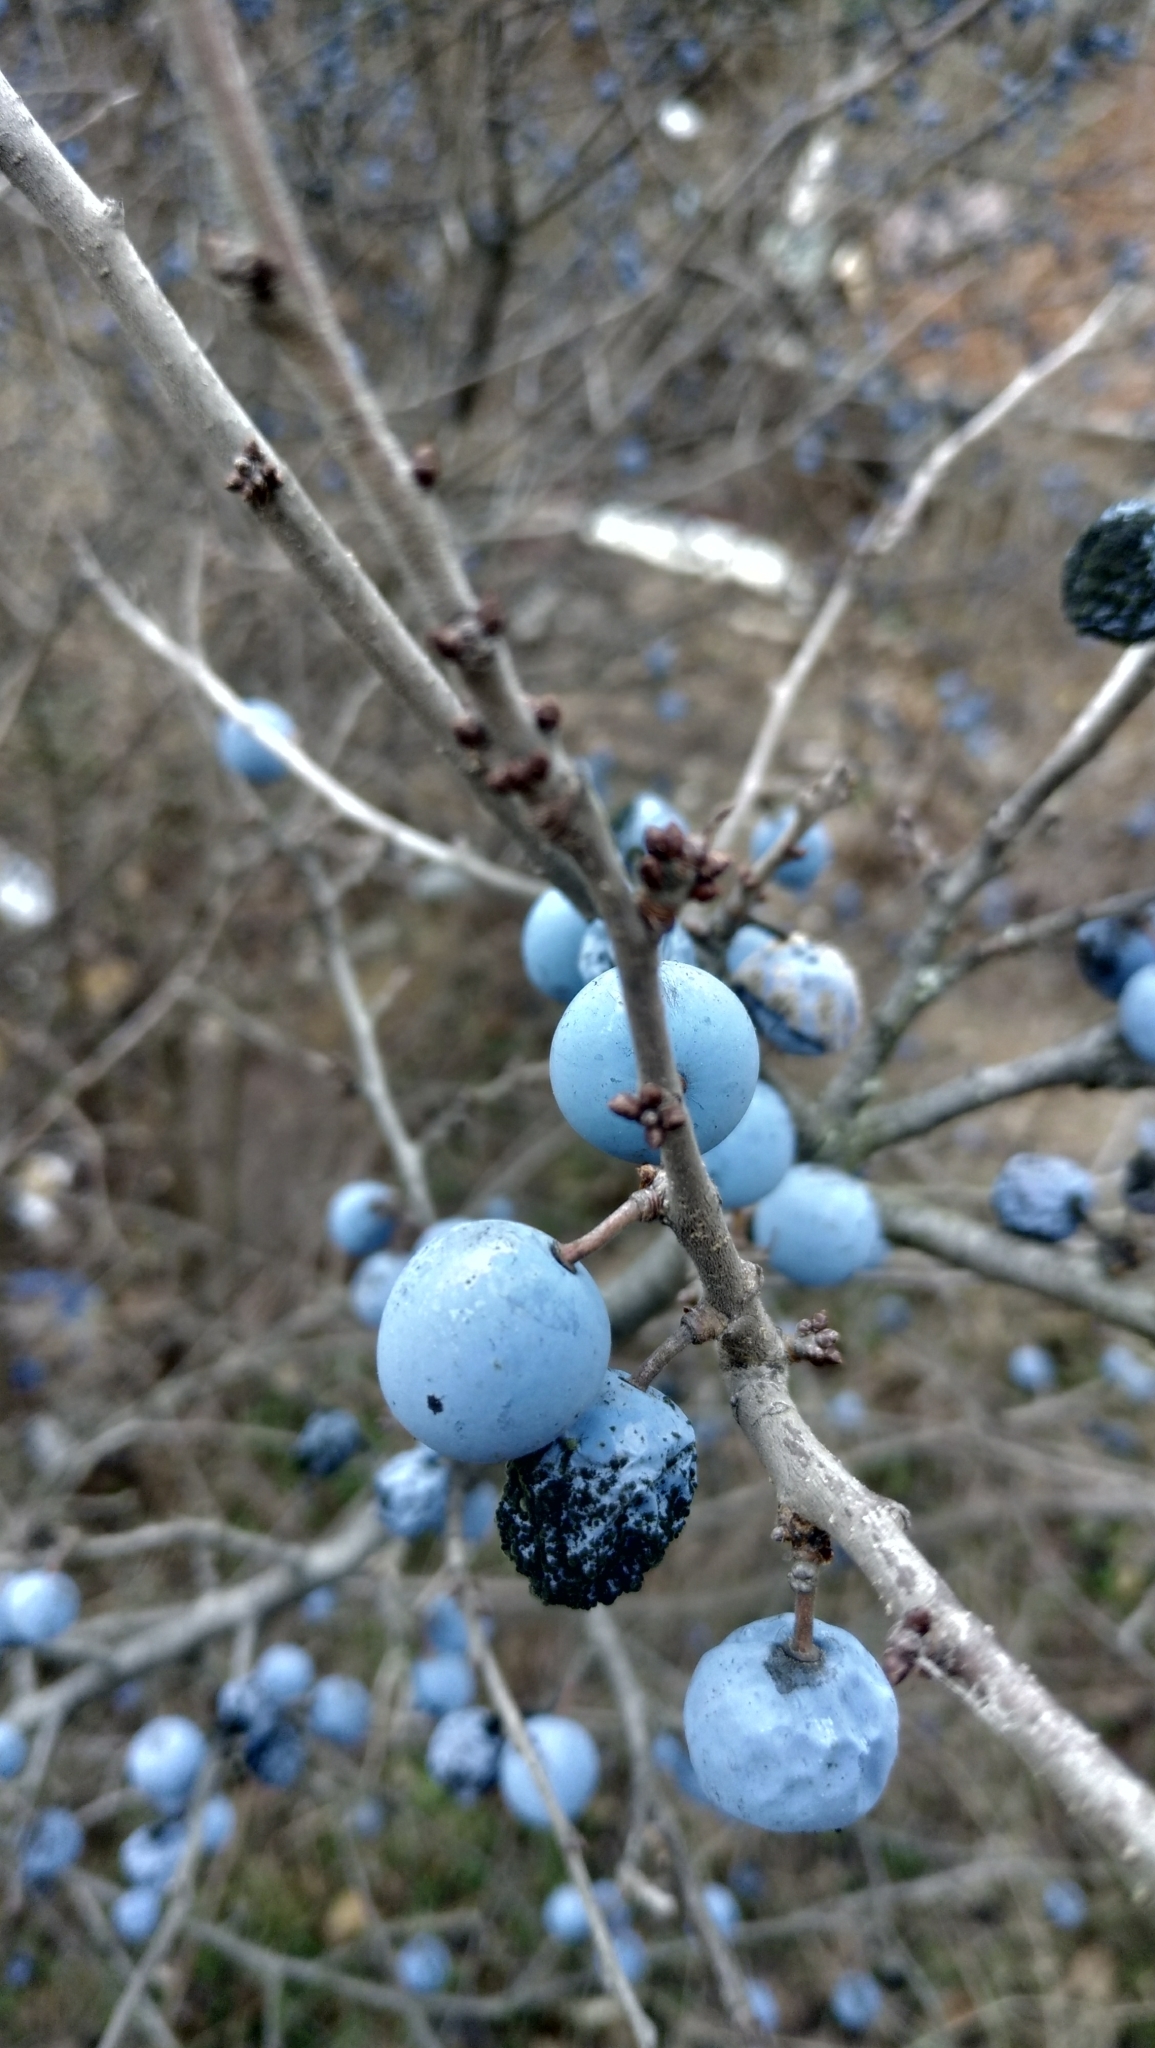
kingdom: Plantae
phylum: Tracheophyta
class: Magnoliopsida
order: Rosales
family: Rosaceae
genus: Prunus
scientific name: Prunus spinosa
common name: Blackthorn
